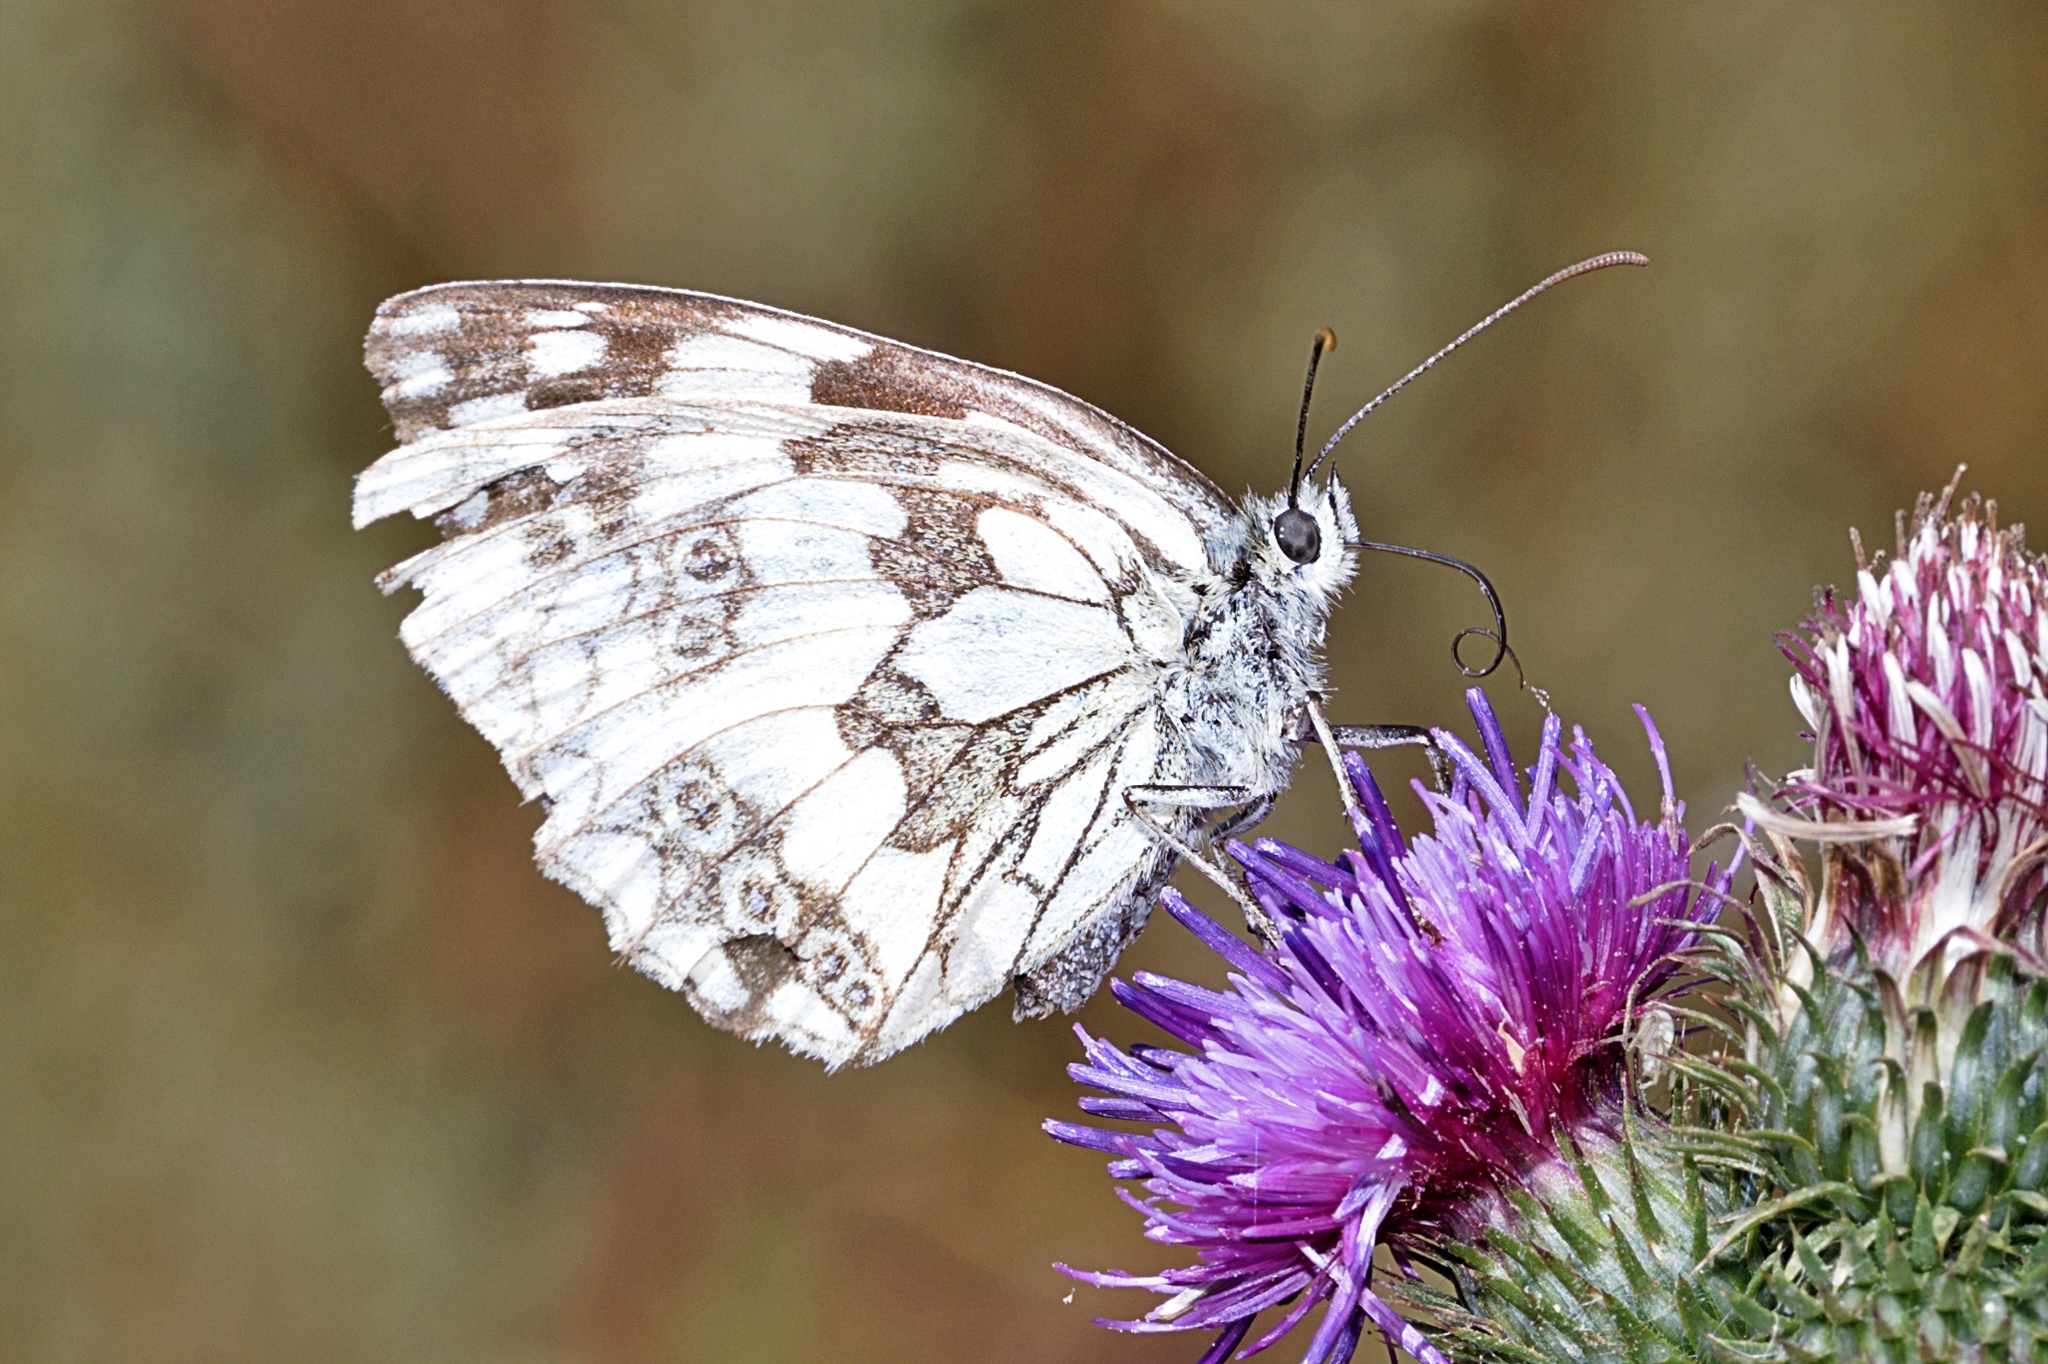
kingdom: Animalia
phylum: Arthropoda
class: Insecta
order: Lepidoptera
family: Nymphalidae
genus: Melanargia
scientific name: Melanargia galathea
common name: Marbled white
